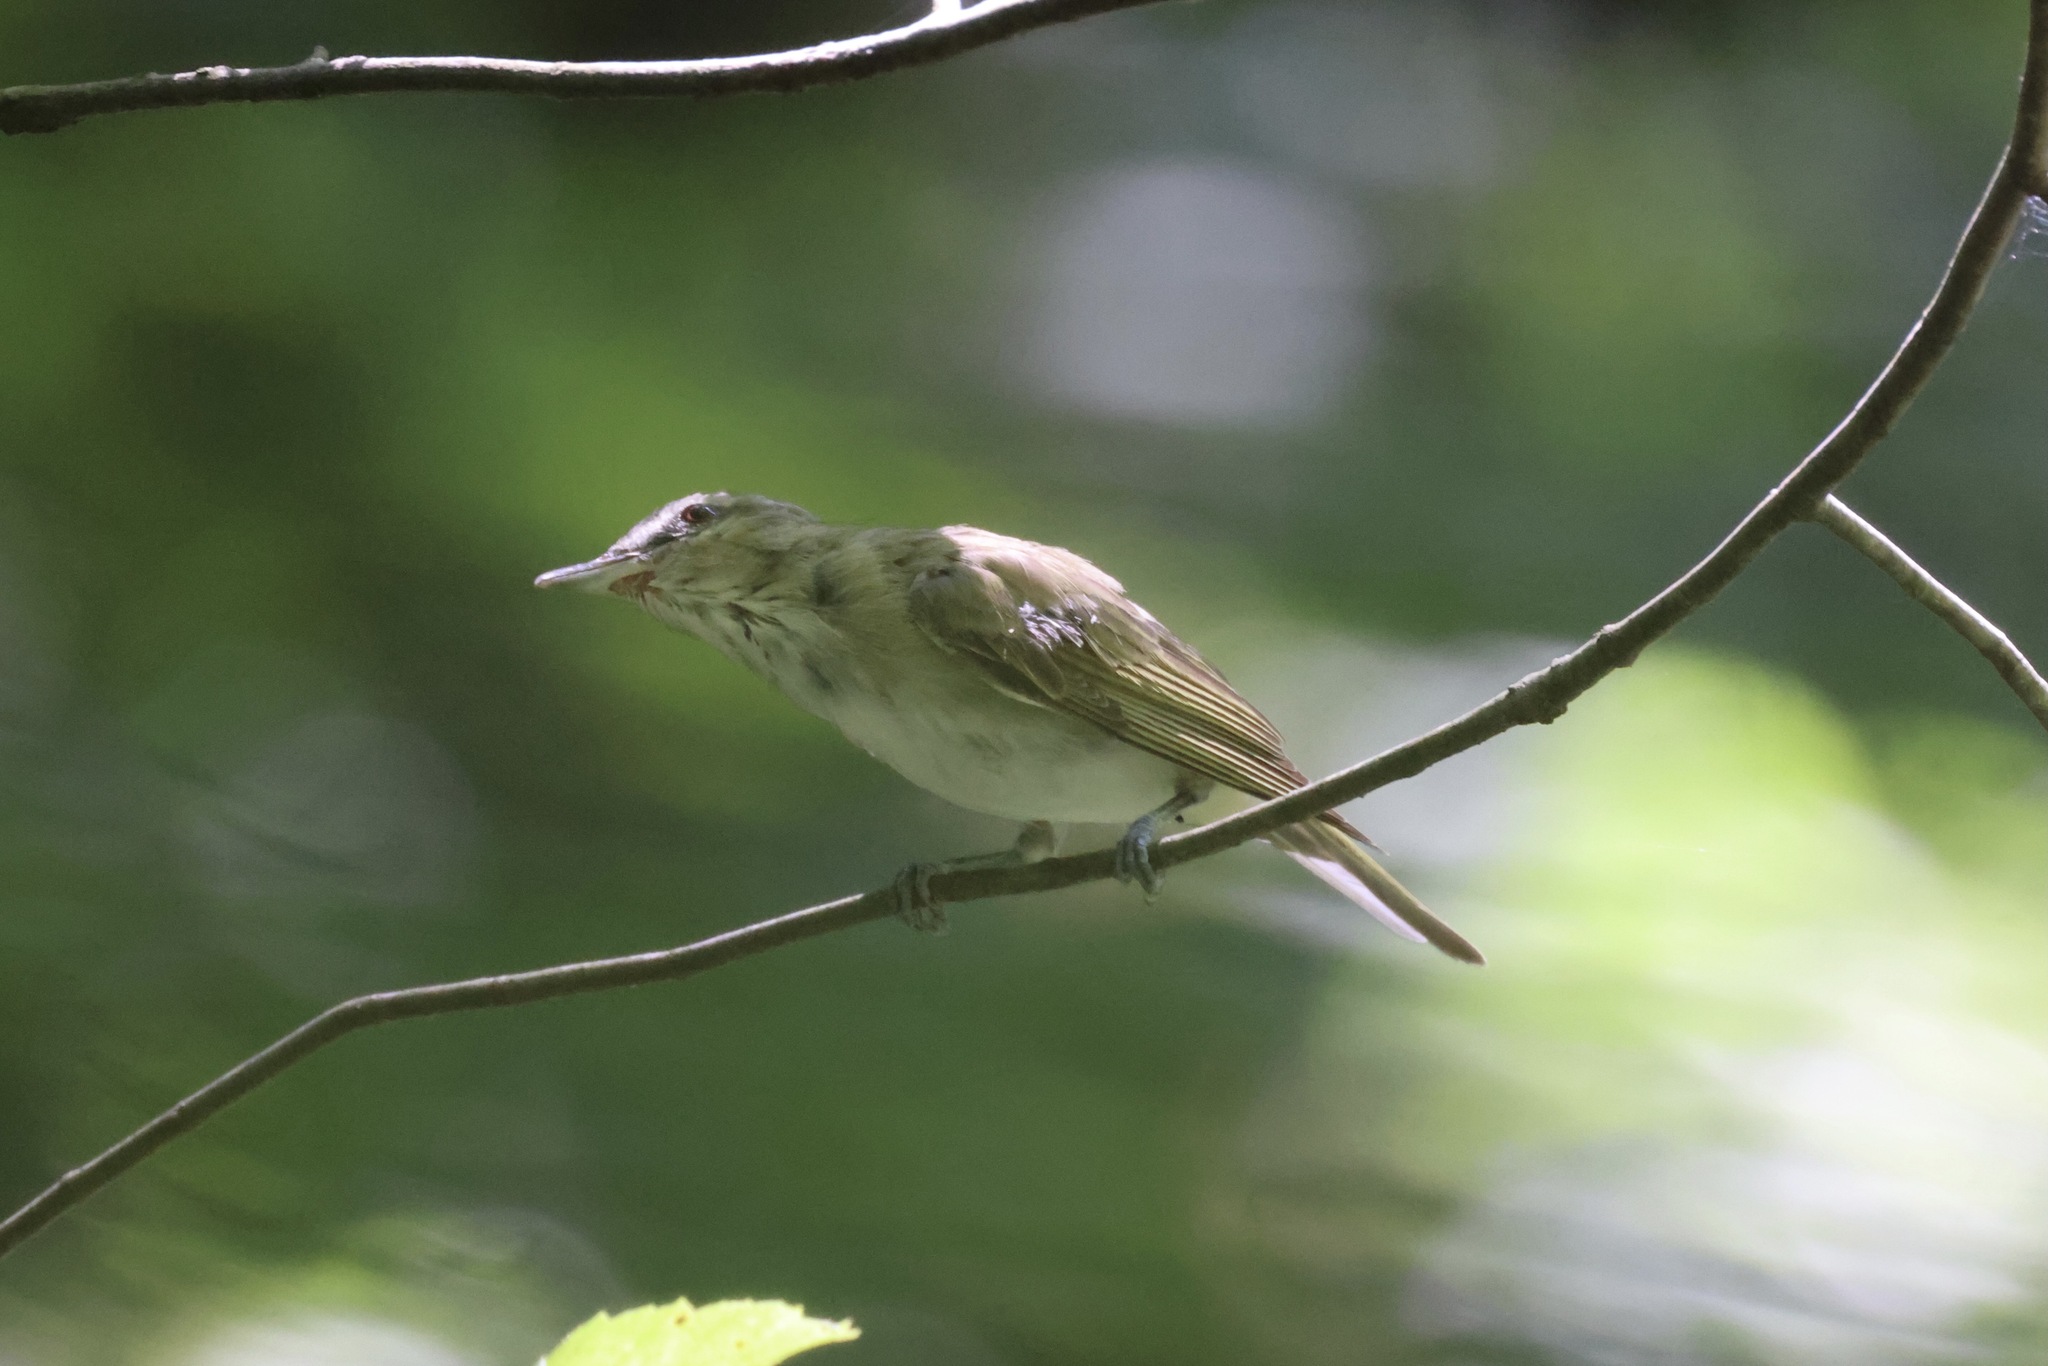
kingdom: Animalia
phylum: Chordata
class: Aves
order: Passeriformes
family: Vireonidae
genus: Vireo
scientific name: Vireo olivaceus
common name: Red-eyed vireo
